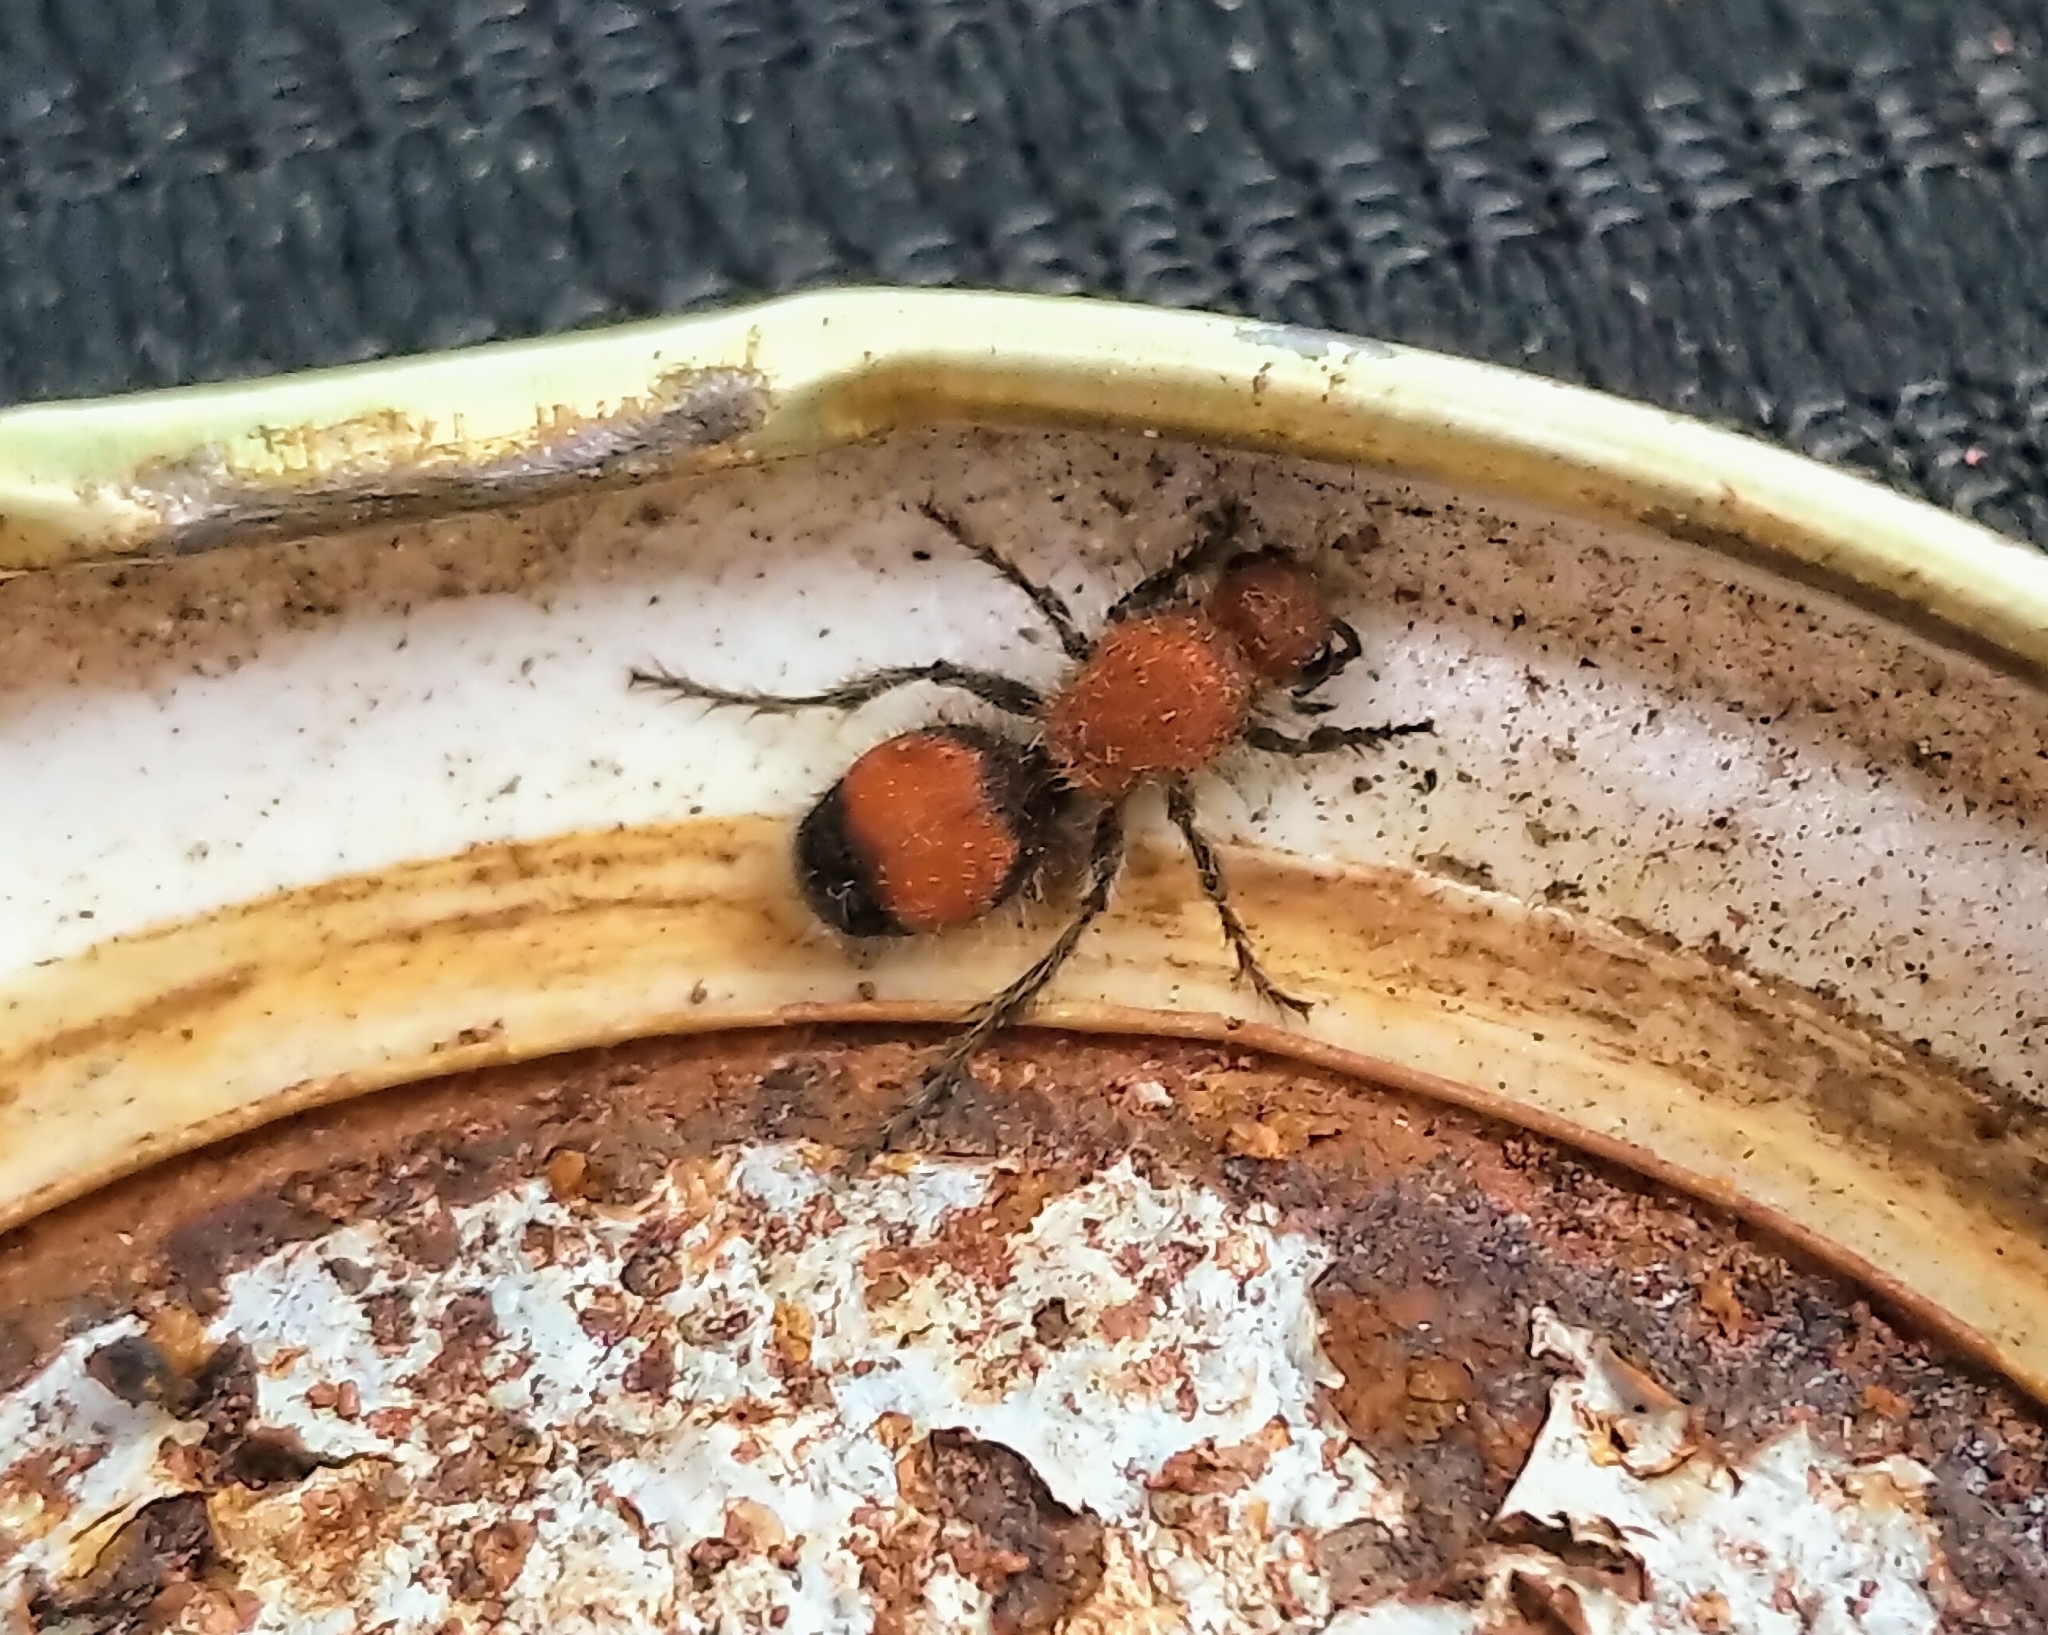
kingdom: Animalia
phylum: Arthropoda
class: Insecta
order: Hymenoptera
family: Mutillidae
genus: Dasymutilla
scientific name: Dasymutilla
